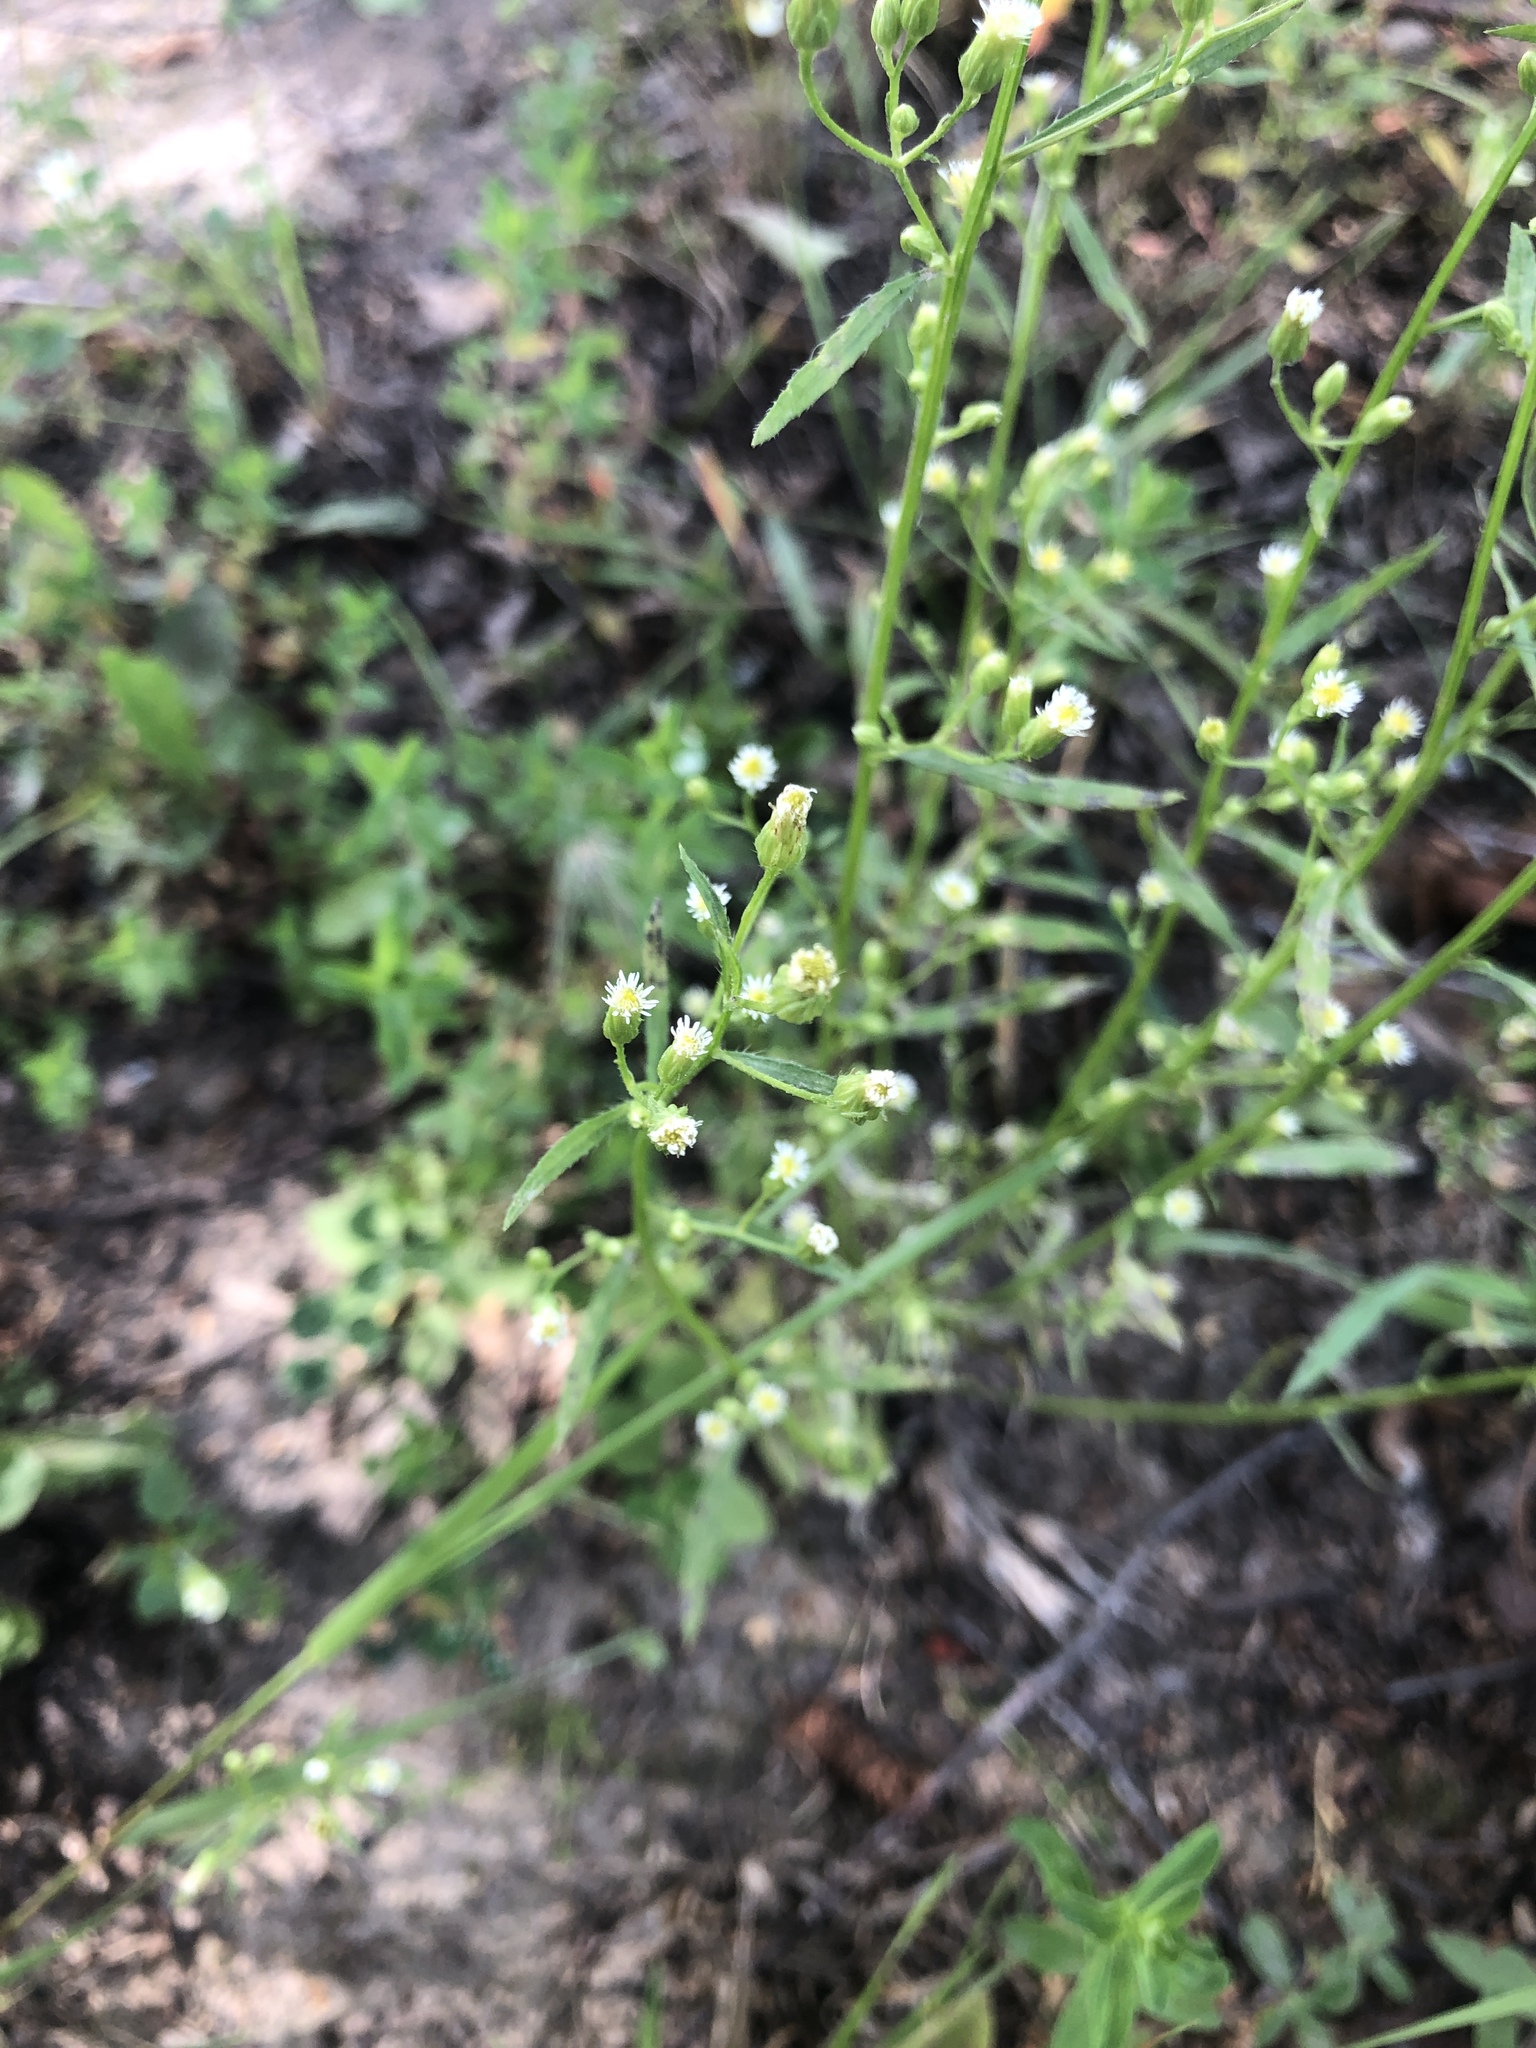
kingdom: Plantae
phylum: Tracheophyta
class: Magnoliopsida
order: Asterales
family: Asteraceae
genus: Erigeron
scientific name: Erigeron canadensis
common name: Canadian fleabane
